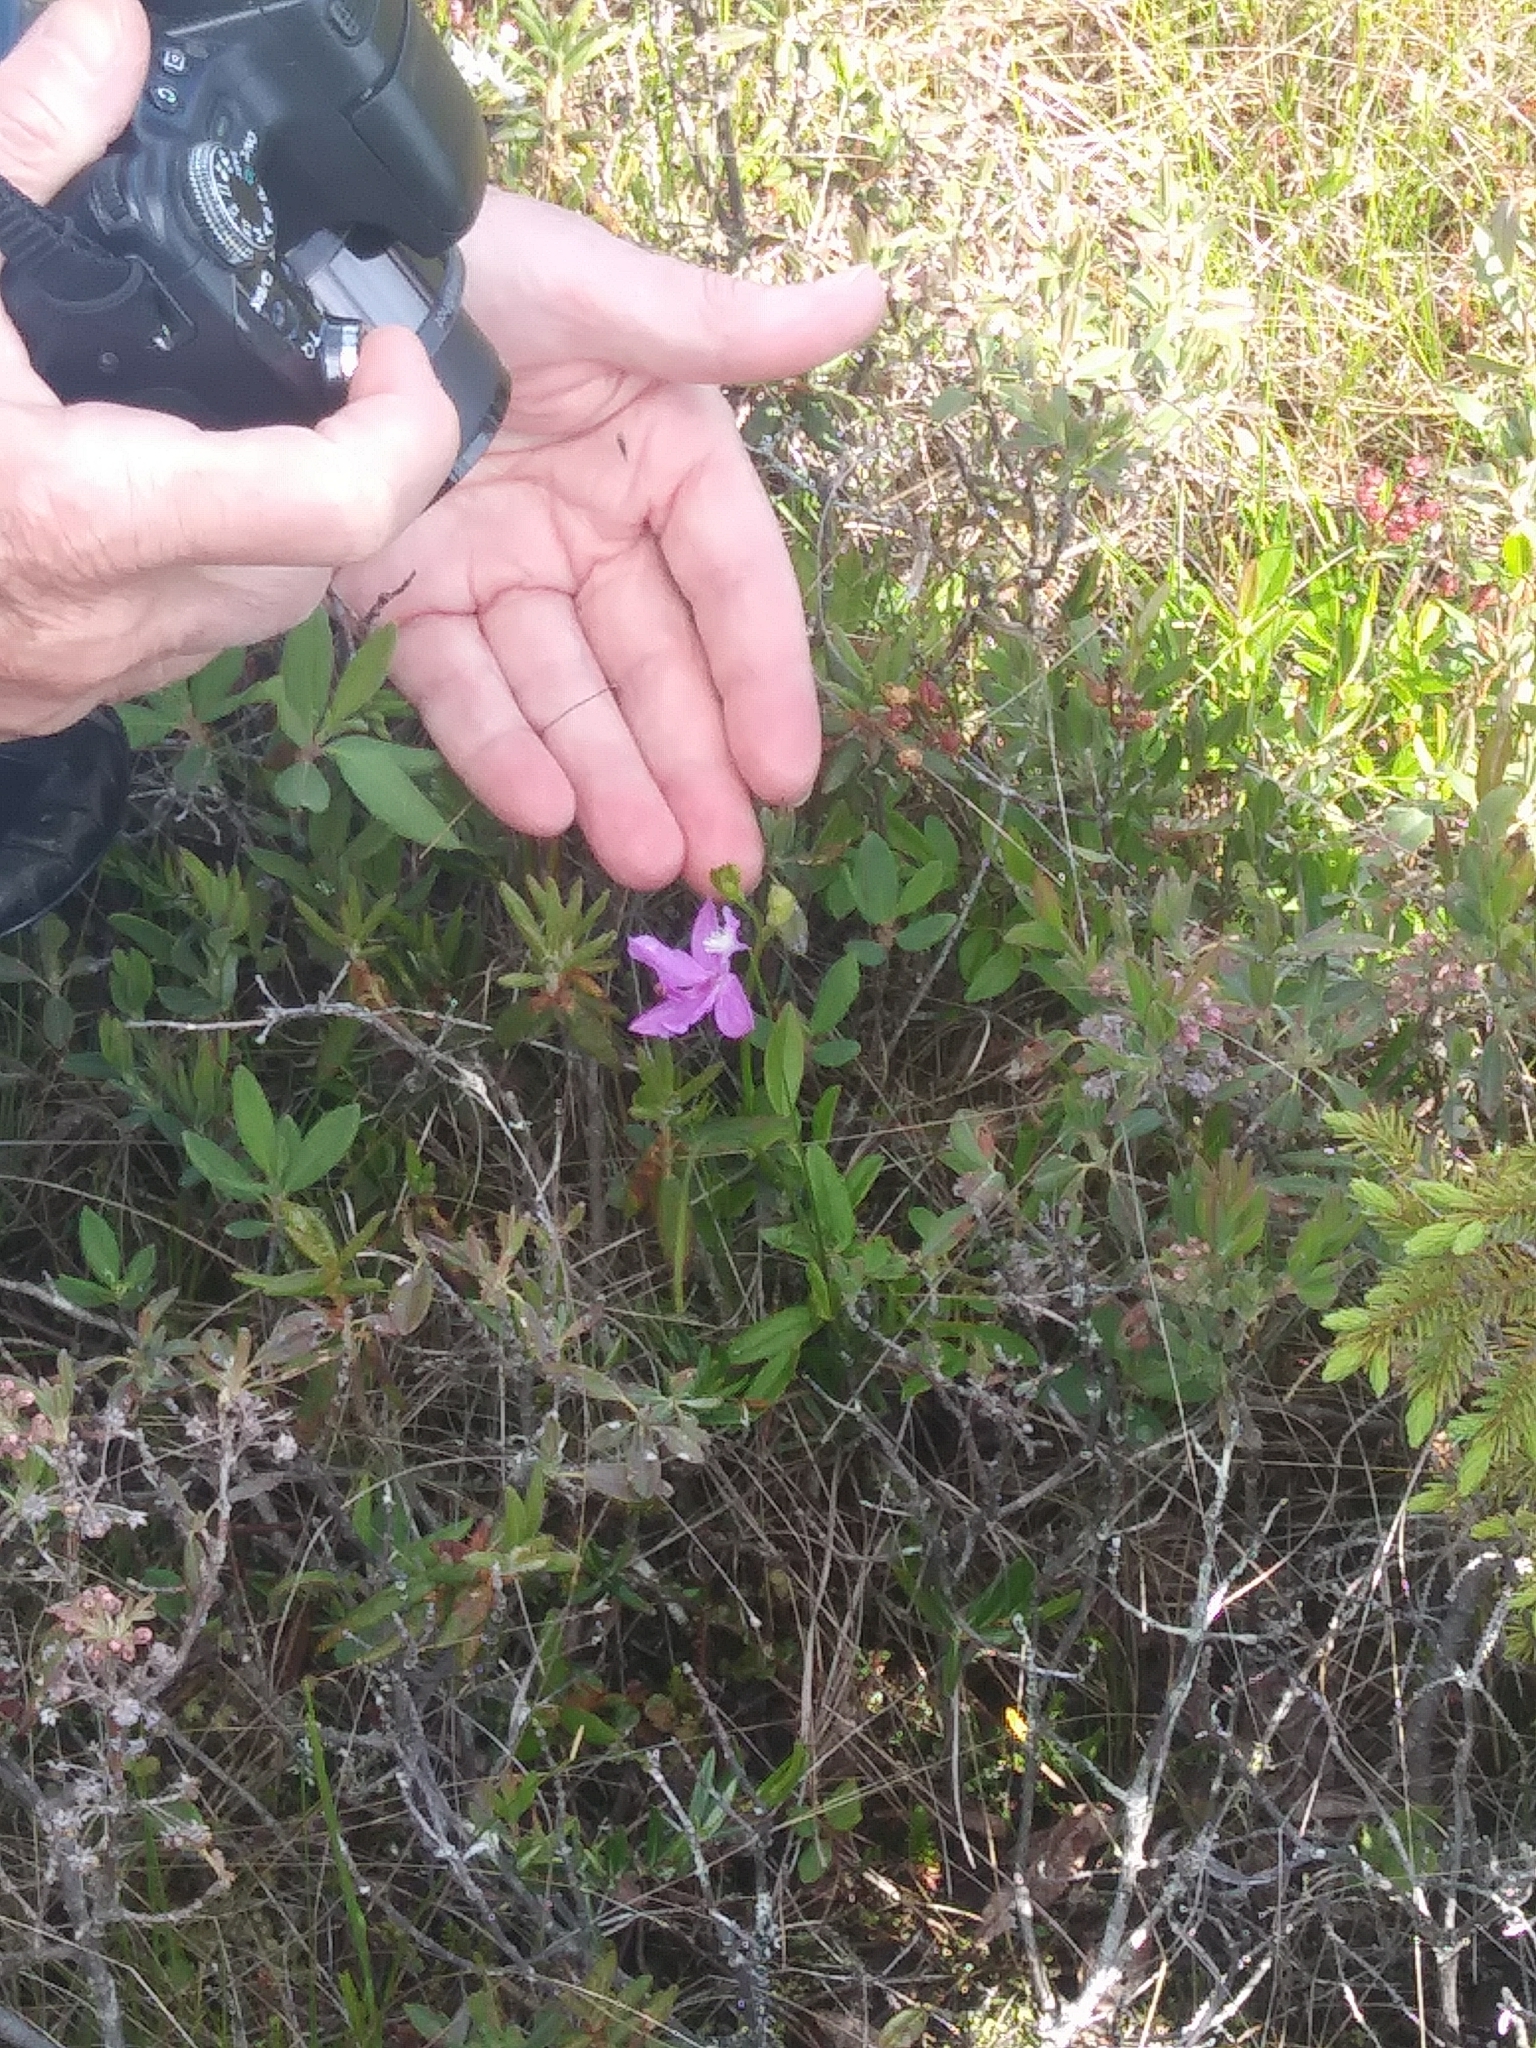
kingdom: Plantae
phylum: Tracheophyta
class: Liliopsida
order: Asparagales
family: Orchidaceae
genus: Calopogon
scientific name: Calopogon tuberosus
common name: Grass-pink
